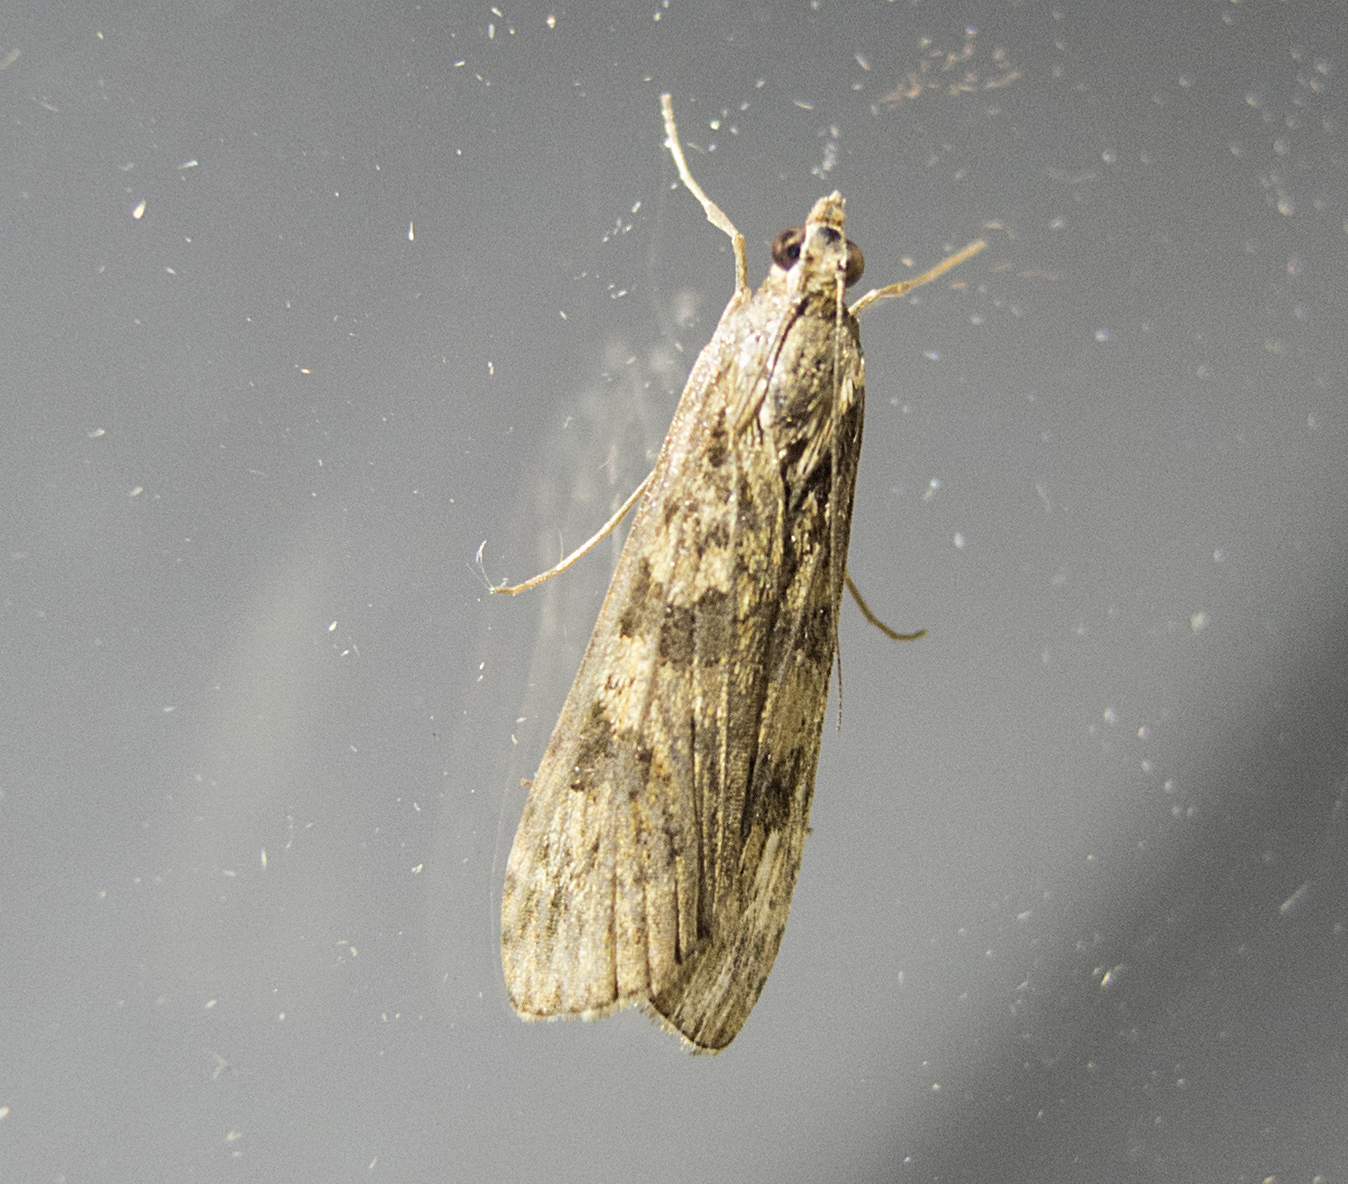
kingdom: Animalia
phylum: Arthropoda
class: Insecta
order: Lepidoptera
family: Crambidae
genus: Nomophila
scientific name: Nomophila noctuella
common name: Rush veneer
